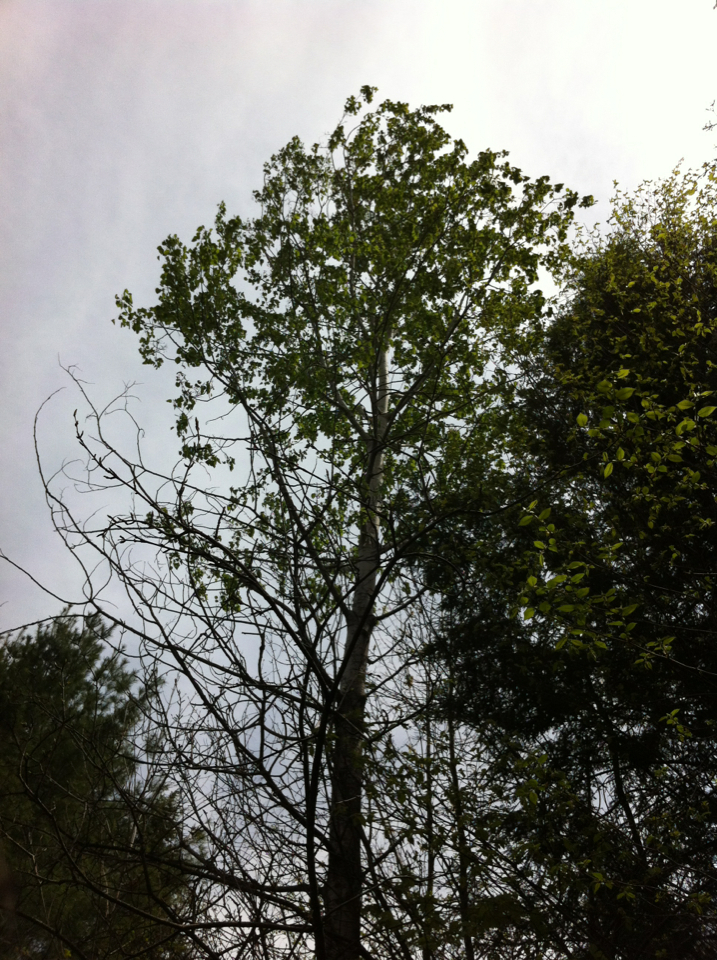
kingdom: Plantae
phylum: Tracheophyta
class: Magnoliopsida
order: Malpighiales
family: Salicaceae
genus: Populus
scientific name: Populus tremuloides
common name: Quaking aspen
